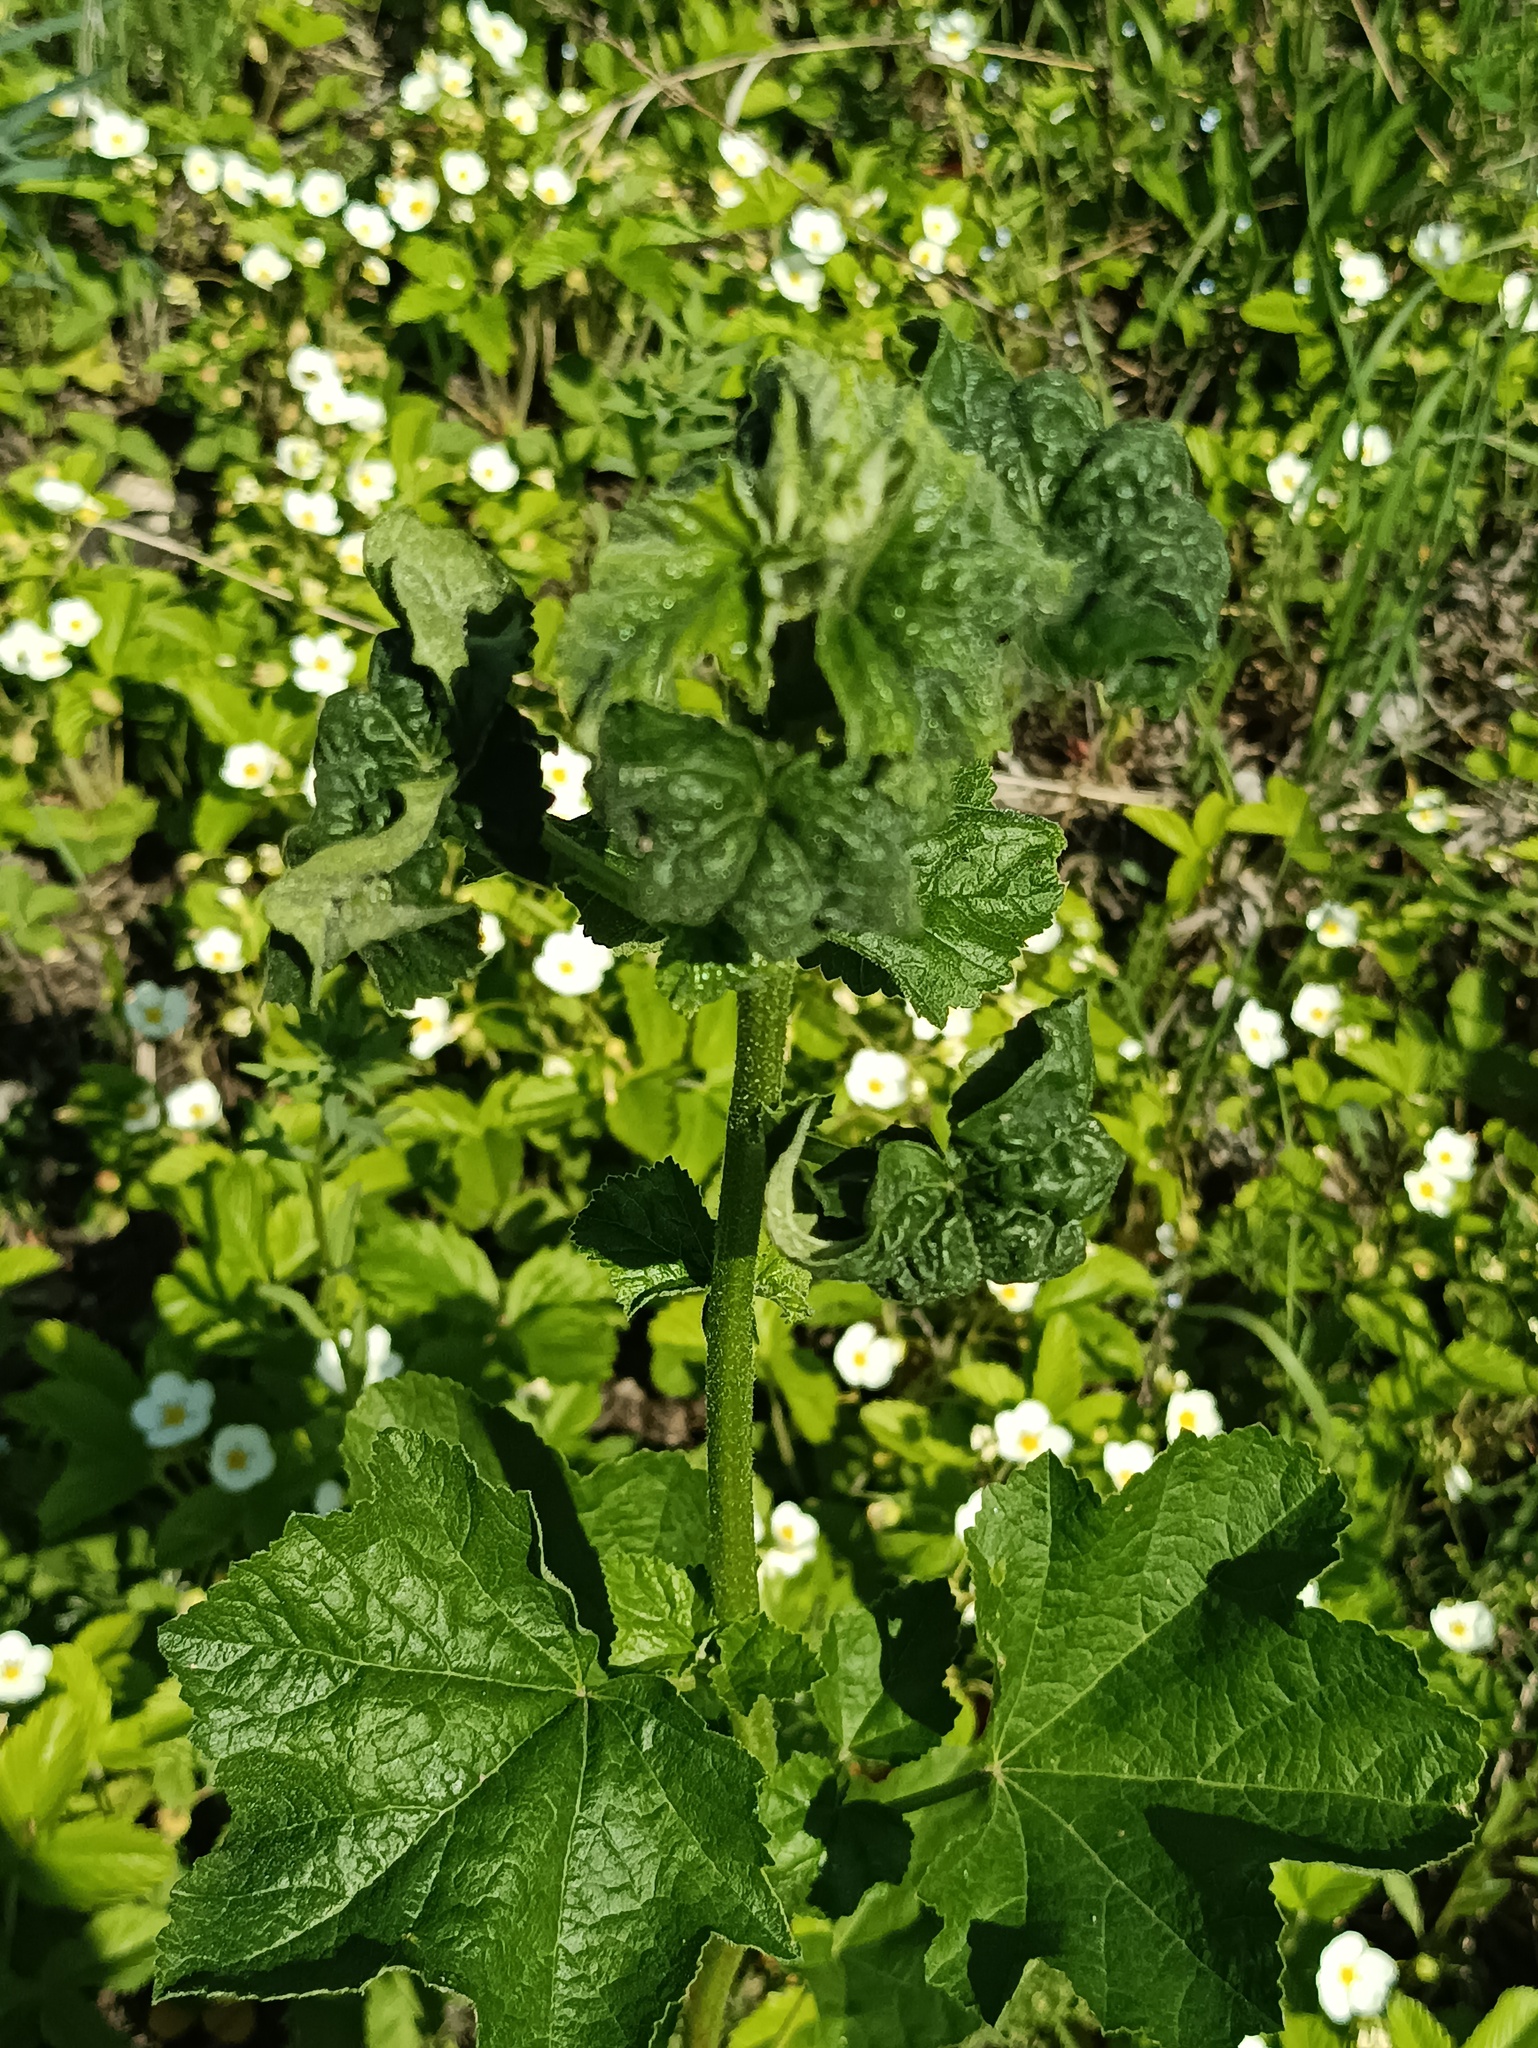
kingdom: Plantae
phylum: Tracheophyta
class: Magnoliopsida
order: Malvales
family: Malvaceae
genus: Malva
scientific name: Malva thuringiaca
